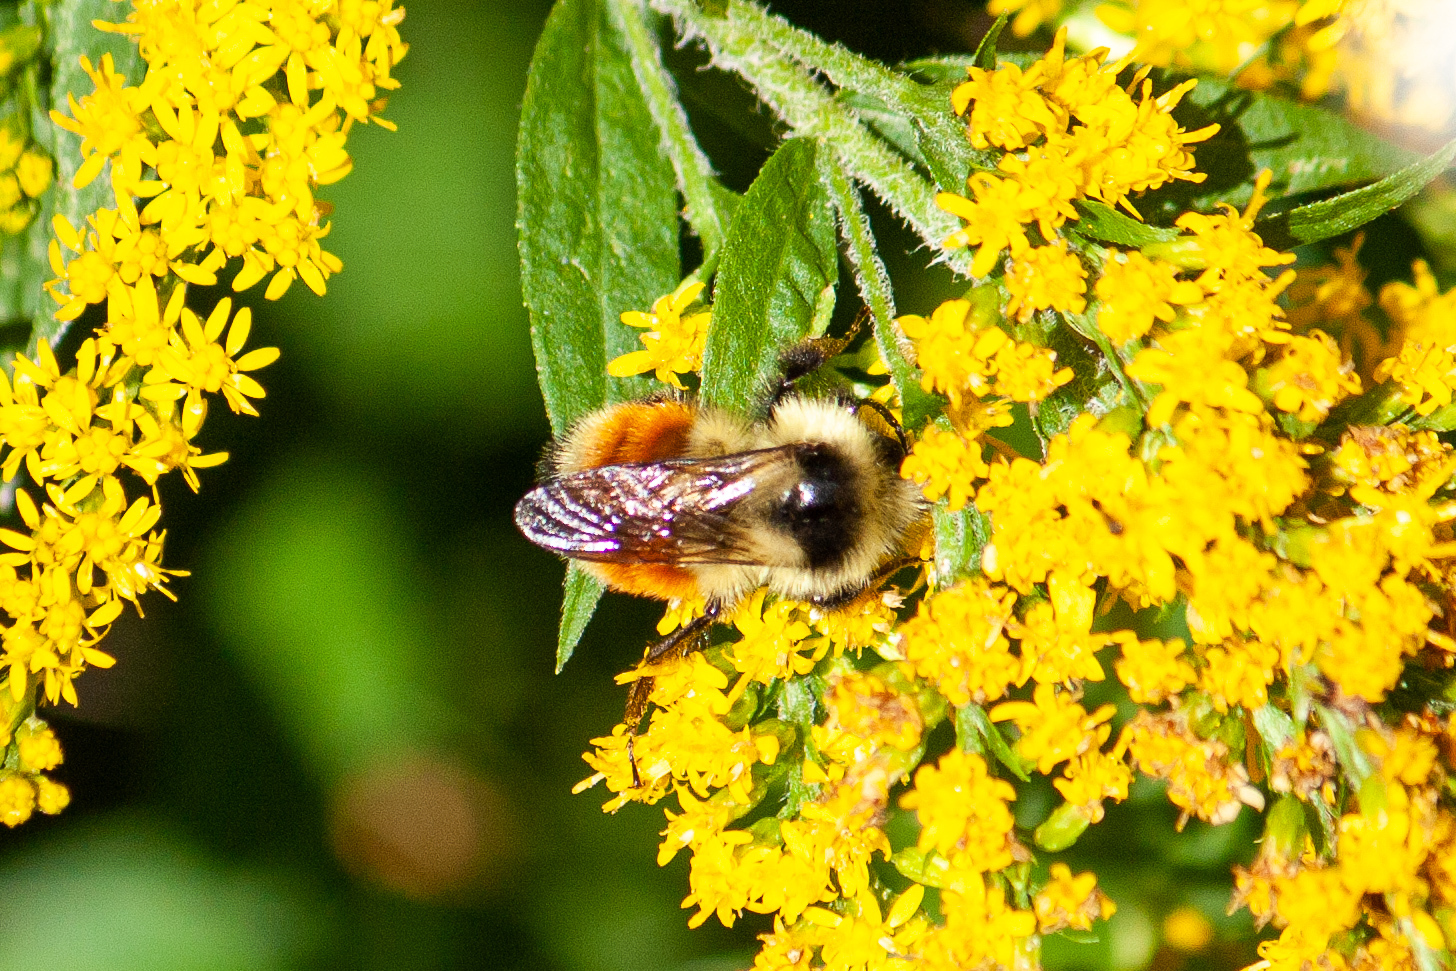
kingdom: Animalia
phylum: Arthropoda
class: Insecta
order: Hymenoptera
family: Apidae
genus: Bombus
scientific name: Bombus ternarius
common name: Tri-colored bumble bee
